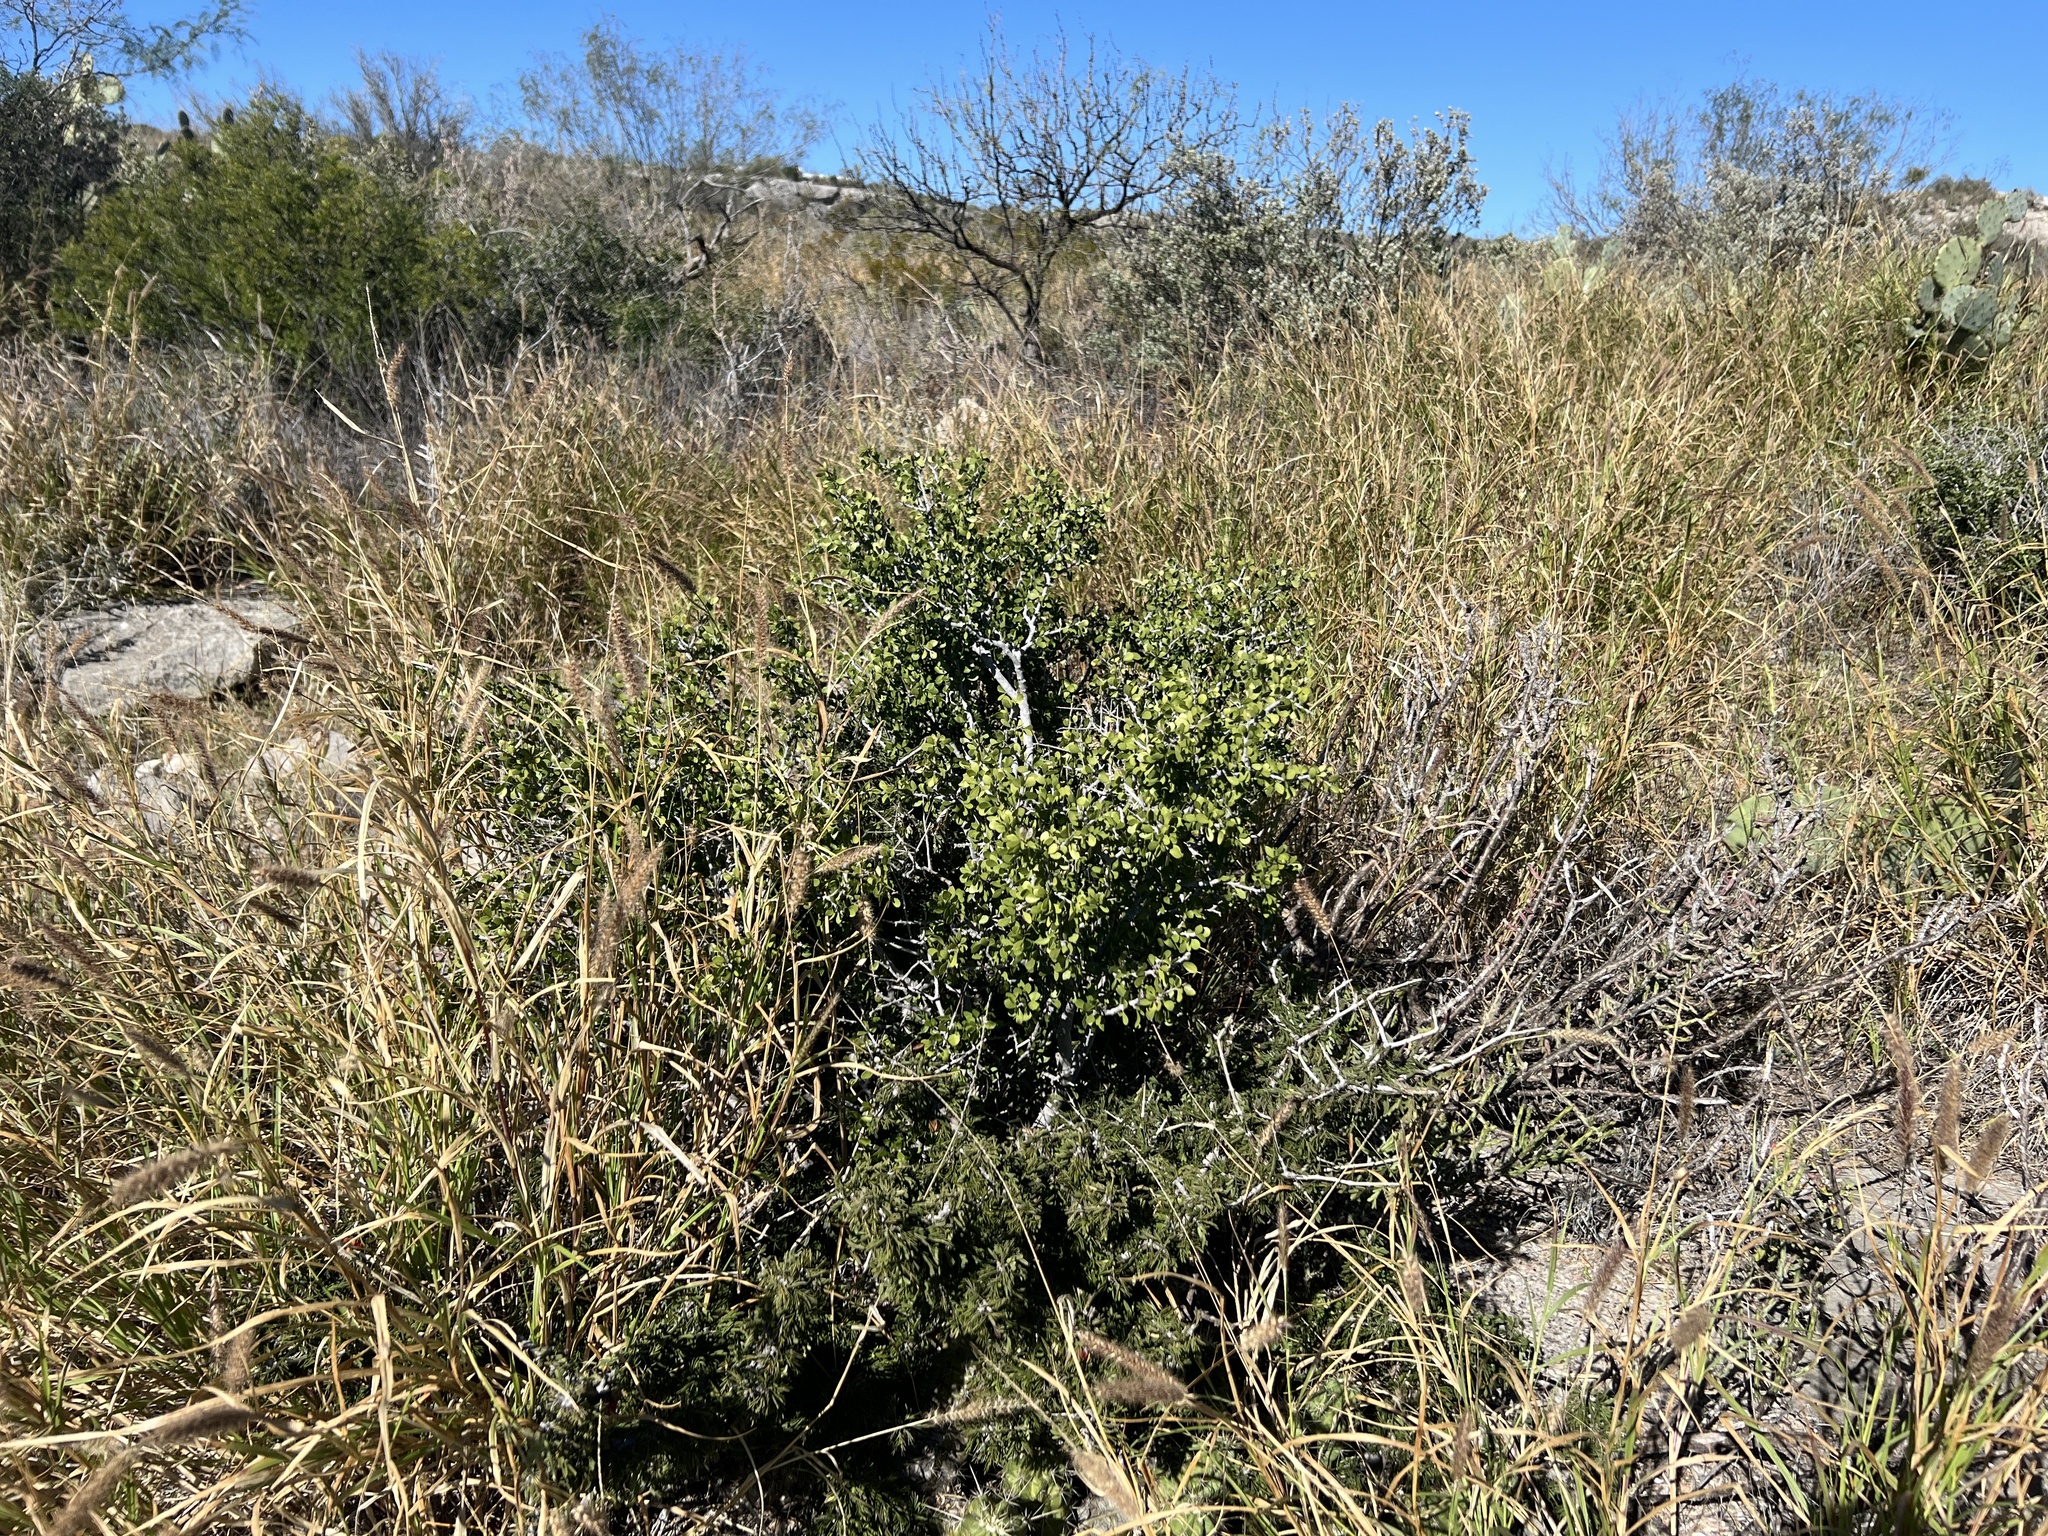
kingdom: Plantae
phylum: Tracheophyta
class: Magnoliopsida
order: Zygophyllales
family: Zygophyllaceae
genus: Porlieria
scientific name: Porlieria angustifolia
